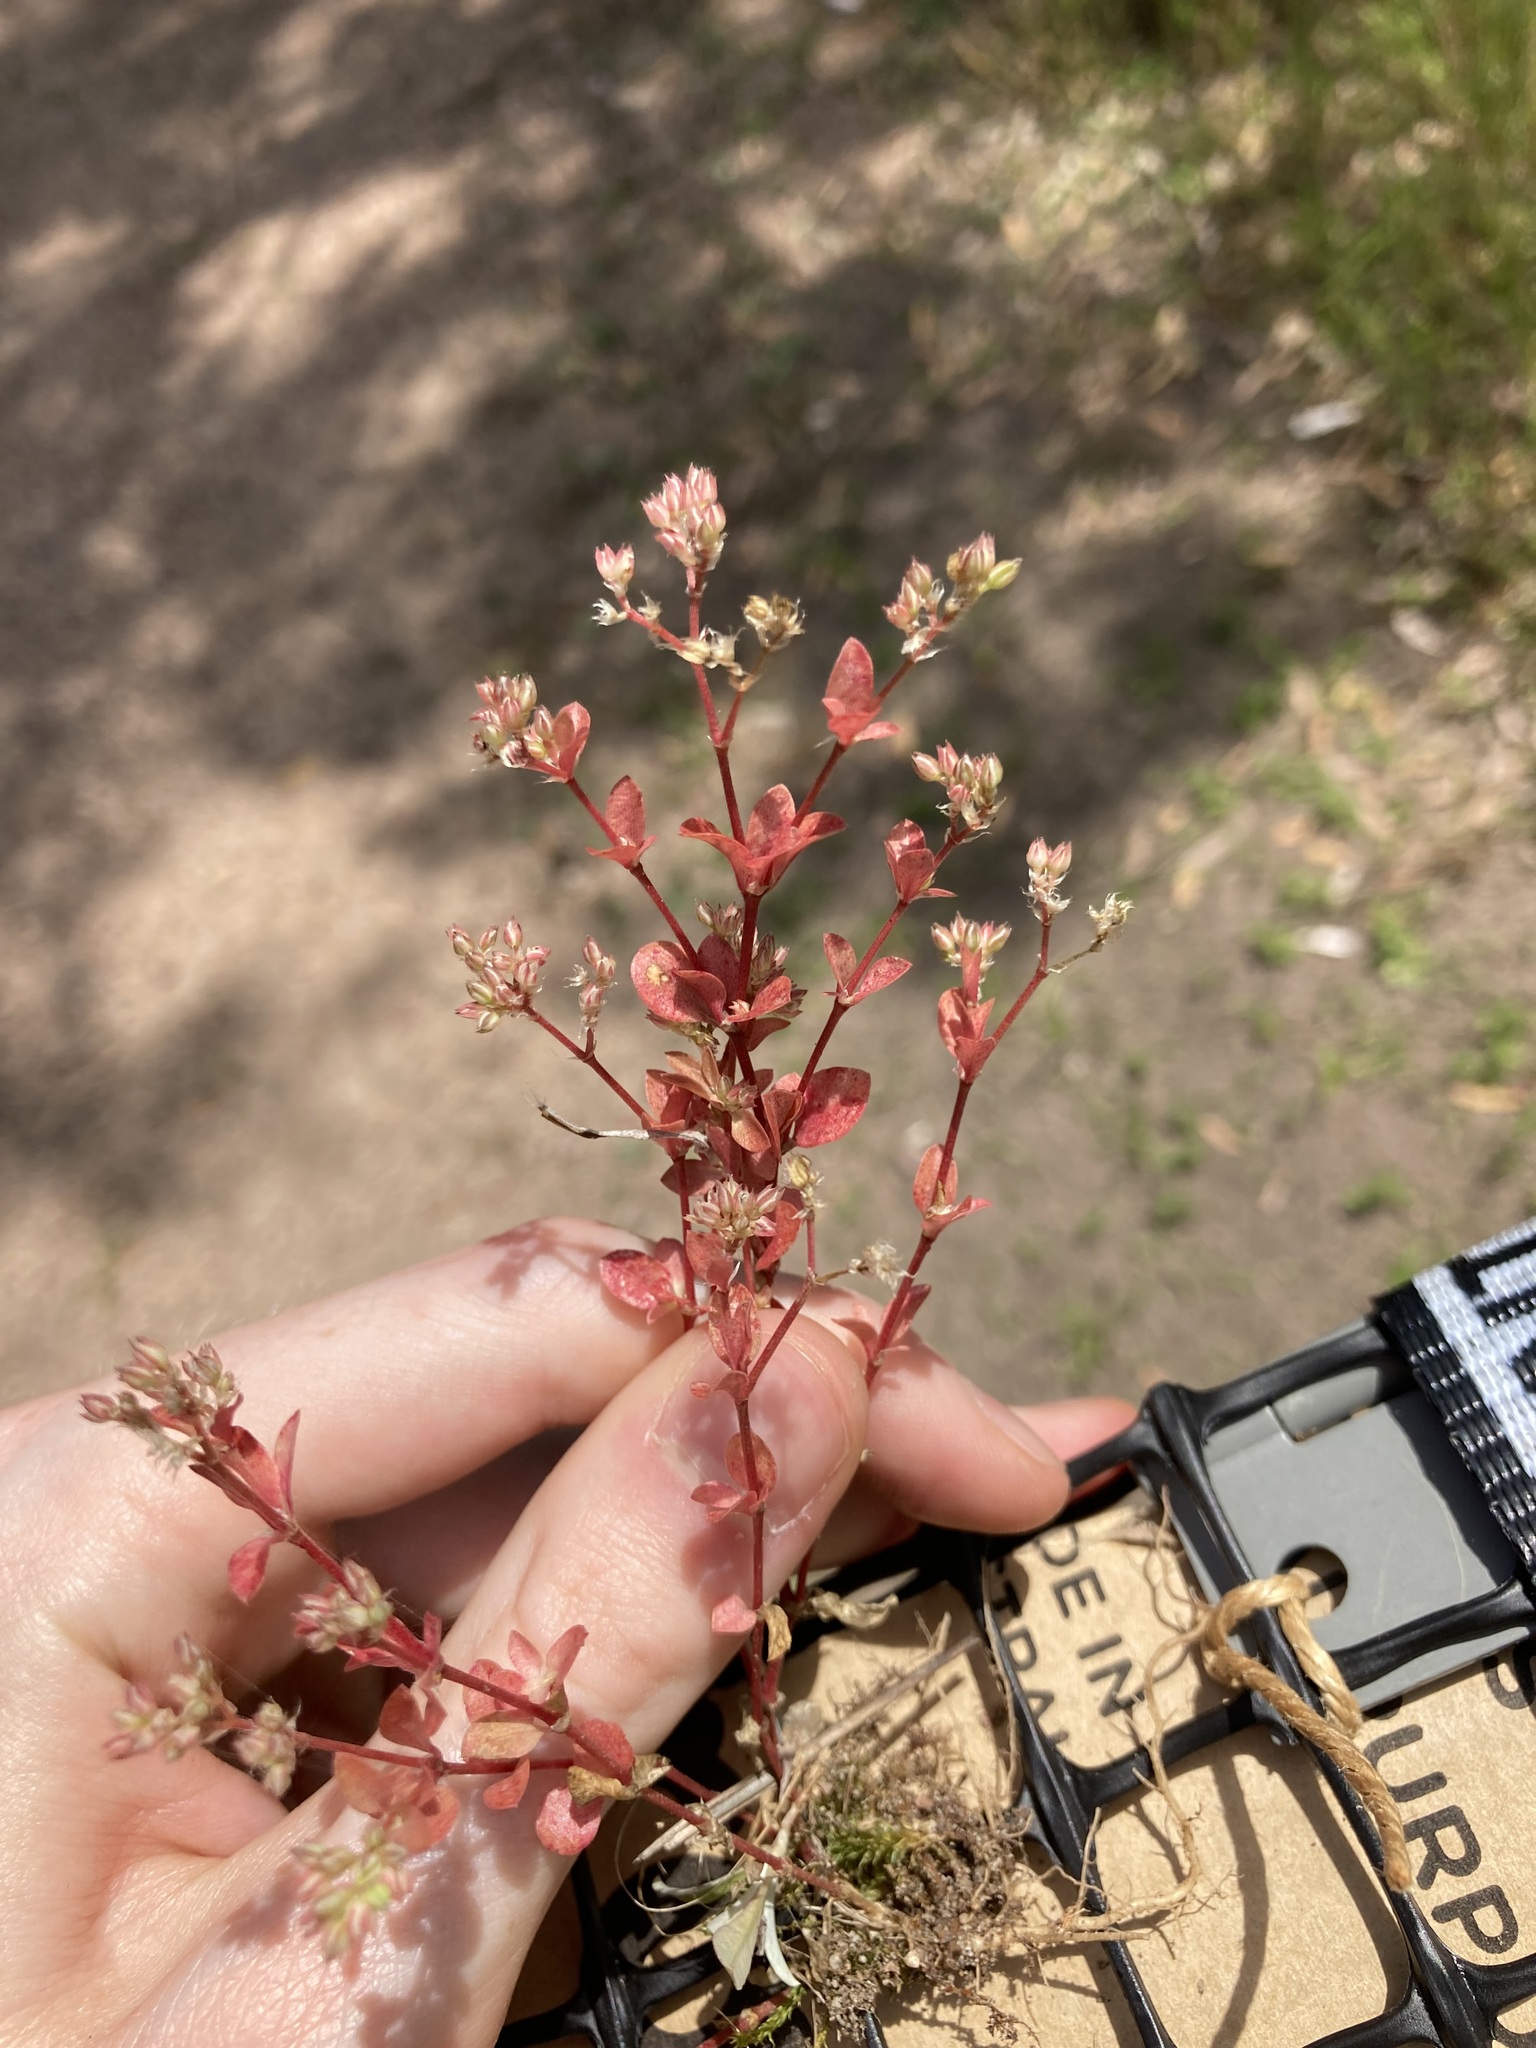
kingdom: Plantae
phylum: Tracheophyta
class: Magnoliopsida
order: Caryophyllales
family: Caryophyllaceae
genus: Polycarpon
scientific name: Polycarpon tetraphyllum
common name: Four-leaved all-seed
